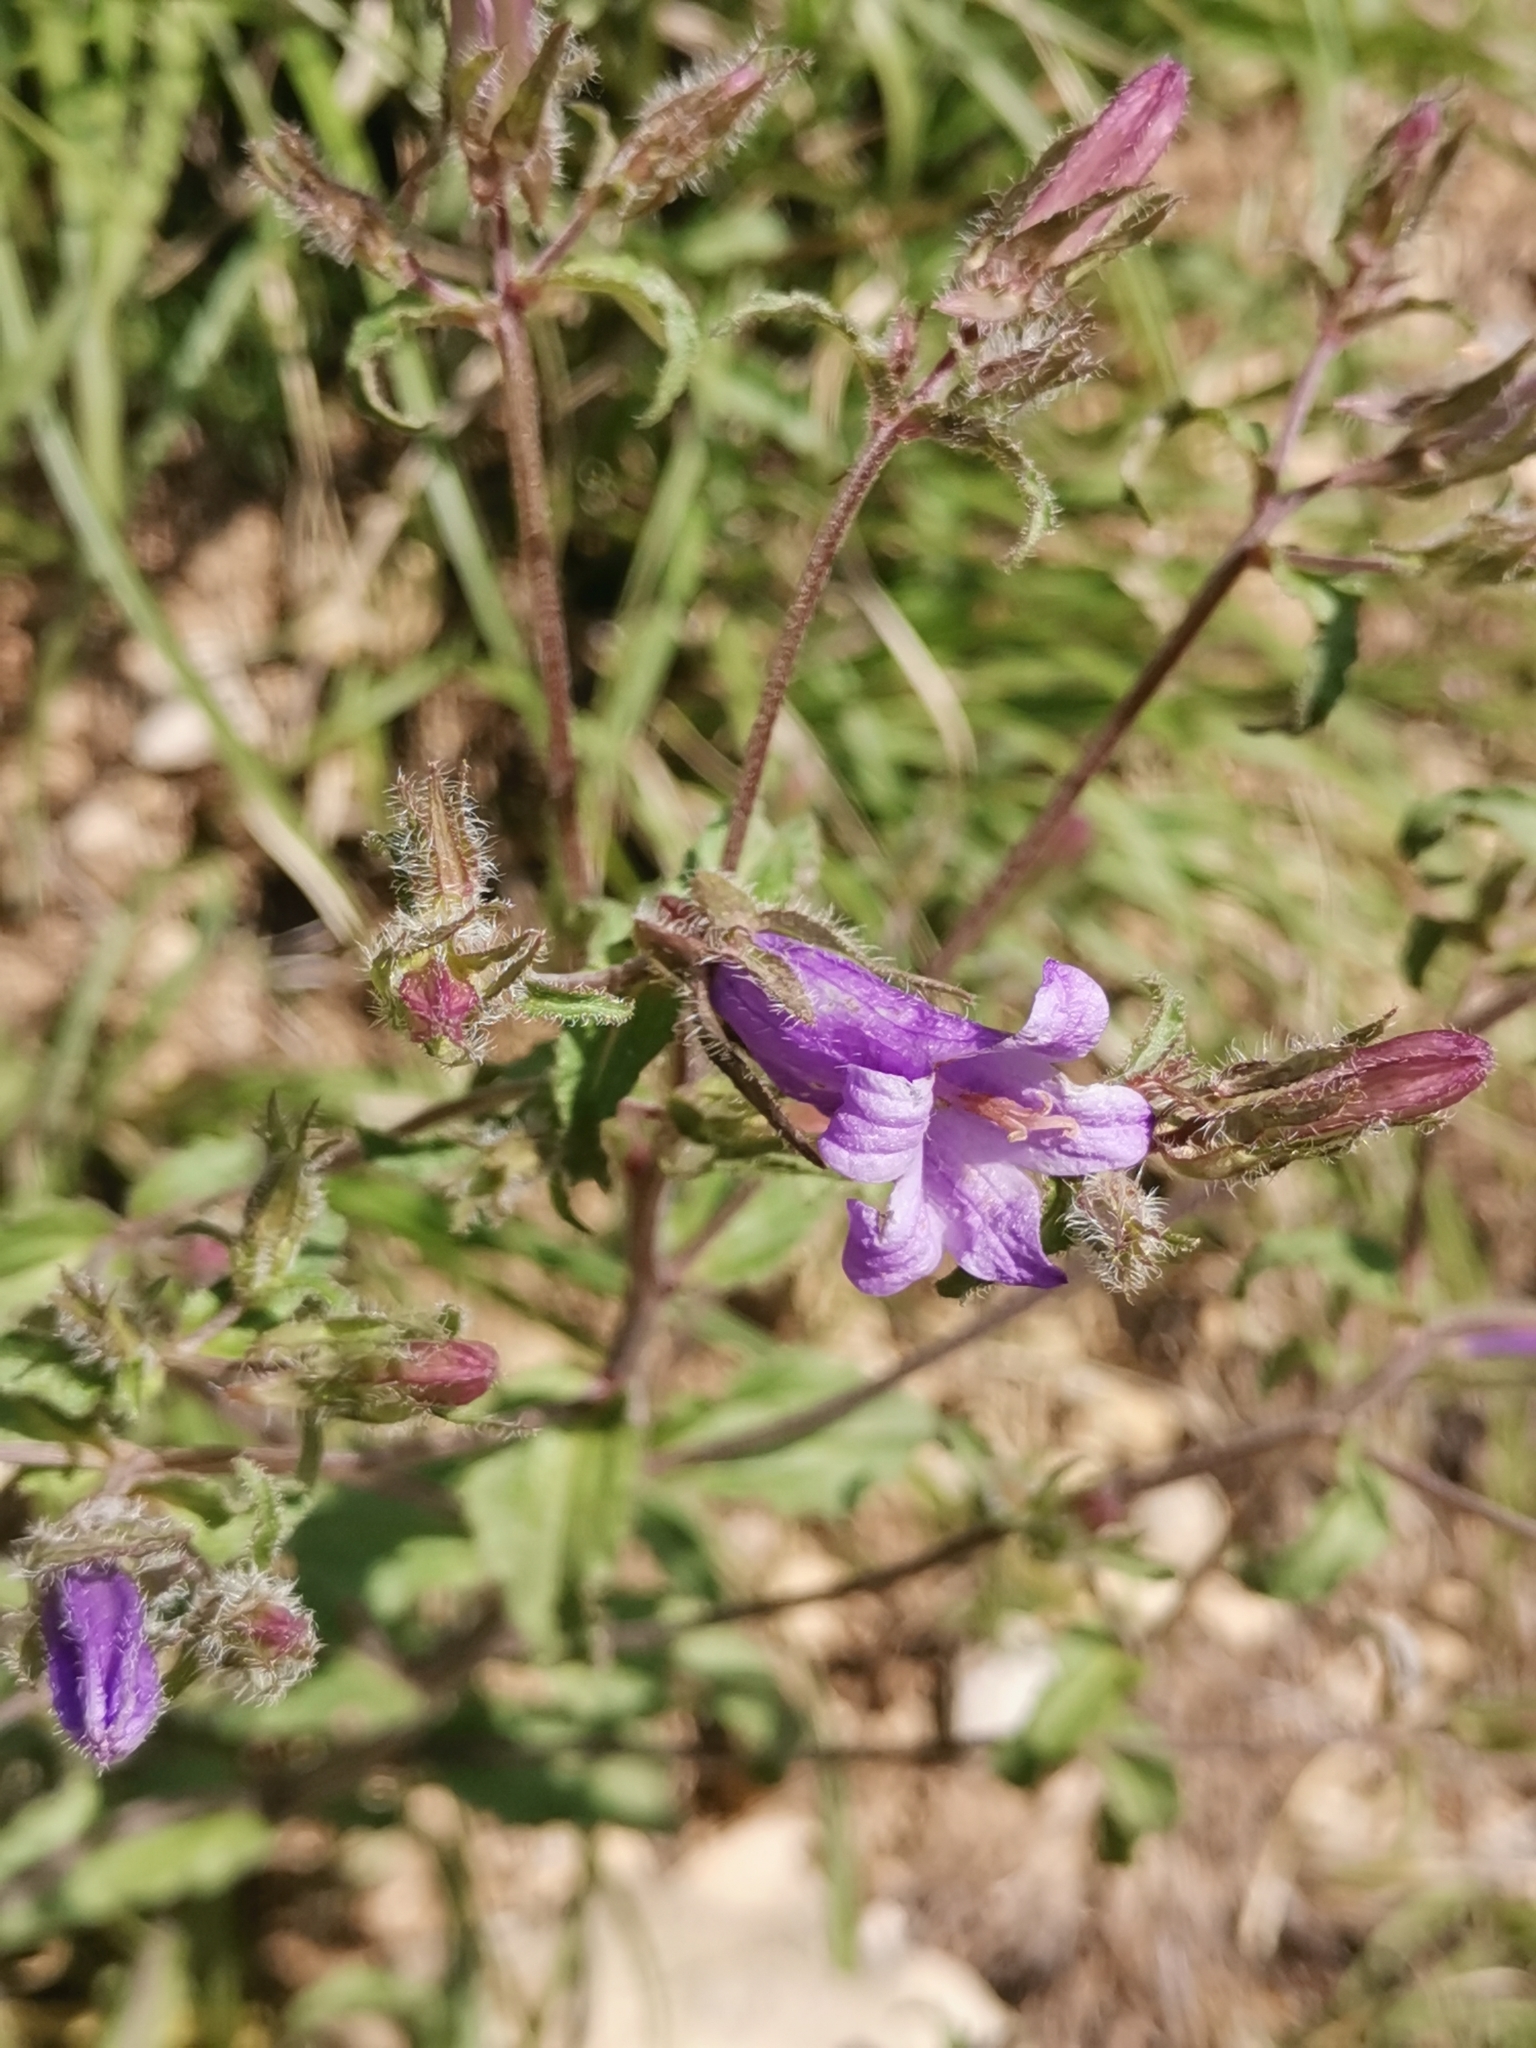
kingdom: Plantae
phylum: Tracheophyta
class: Magnoliopsida
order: Asterales
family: Campanulaceae
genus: Campanula
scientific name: Campanula sibirica
